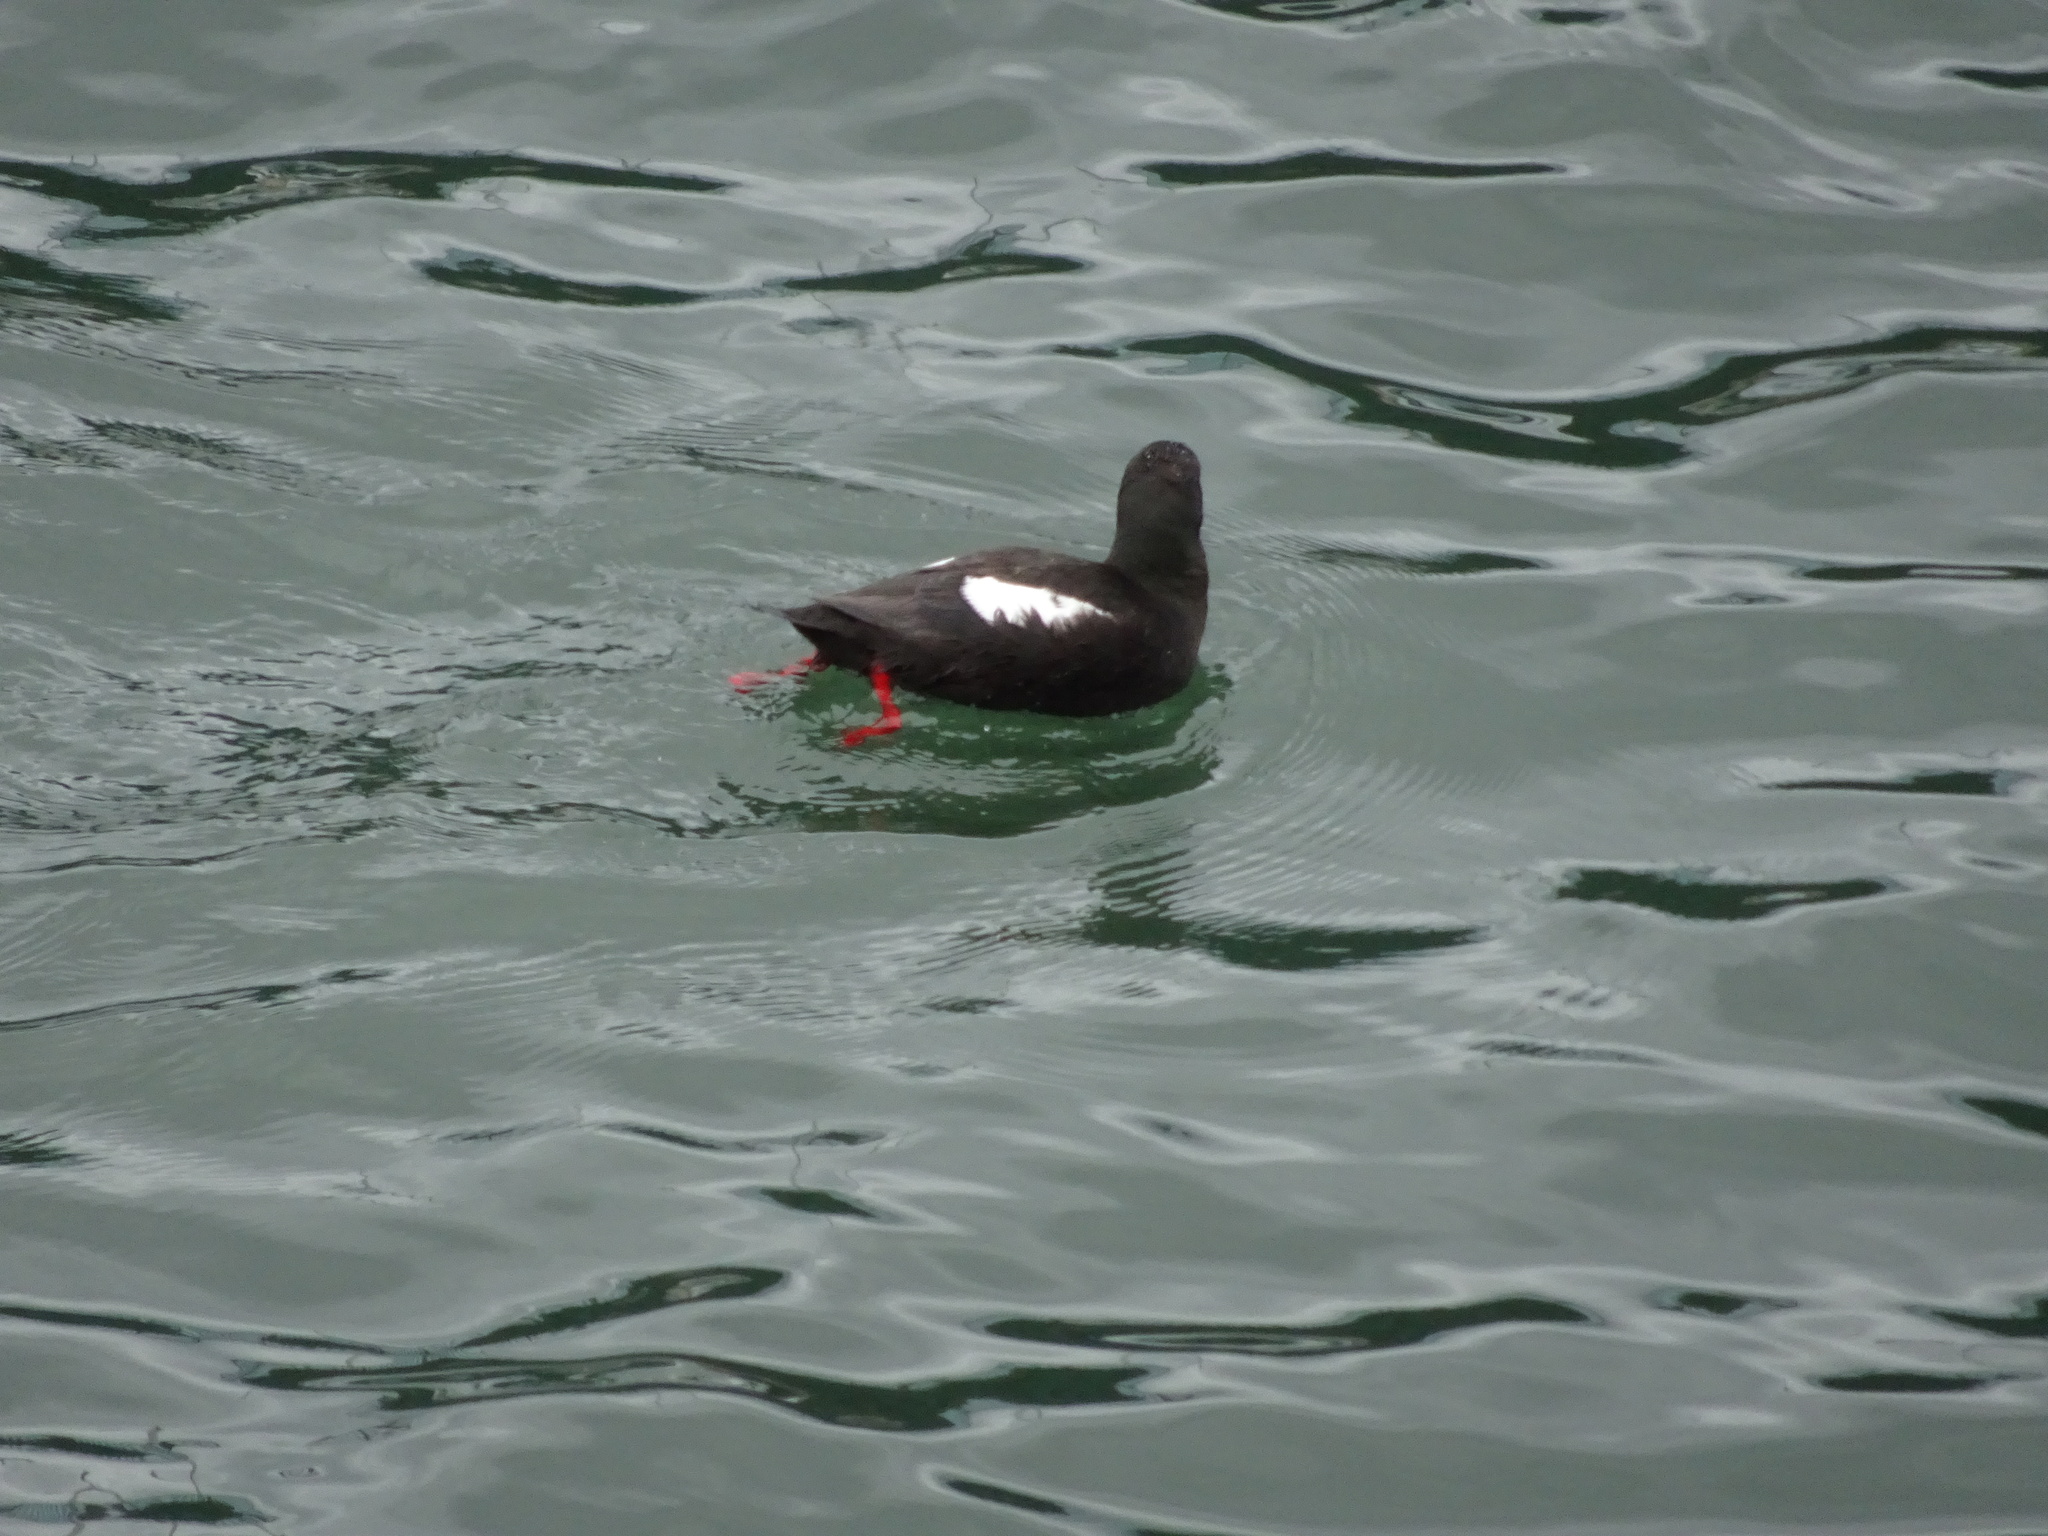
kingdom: Animalia
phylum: Chordata
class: Aves
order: Charadriiformes
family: Alcidae
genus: Cepphus
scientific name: Cepphus grylle
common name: Black guillemot
